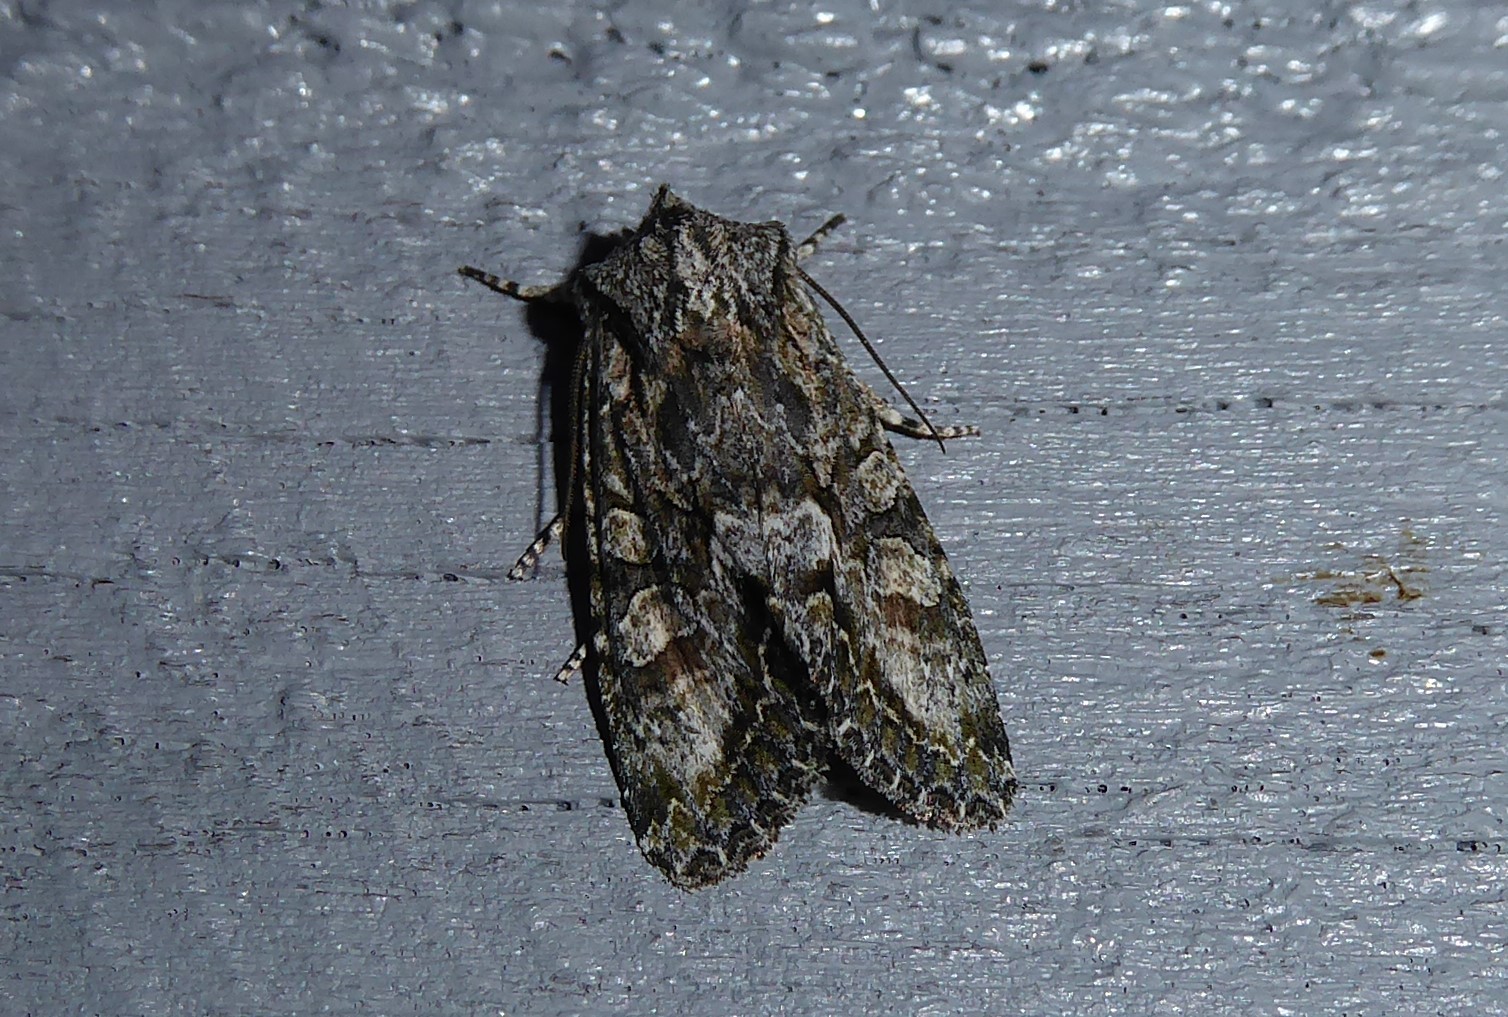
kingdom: Animalia
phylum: Arthropoda
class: Insecta
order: Lepidoptera
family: Noctuidae
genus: Ichneutica
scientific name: Ichneutica mutans
